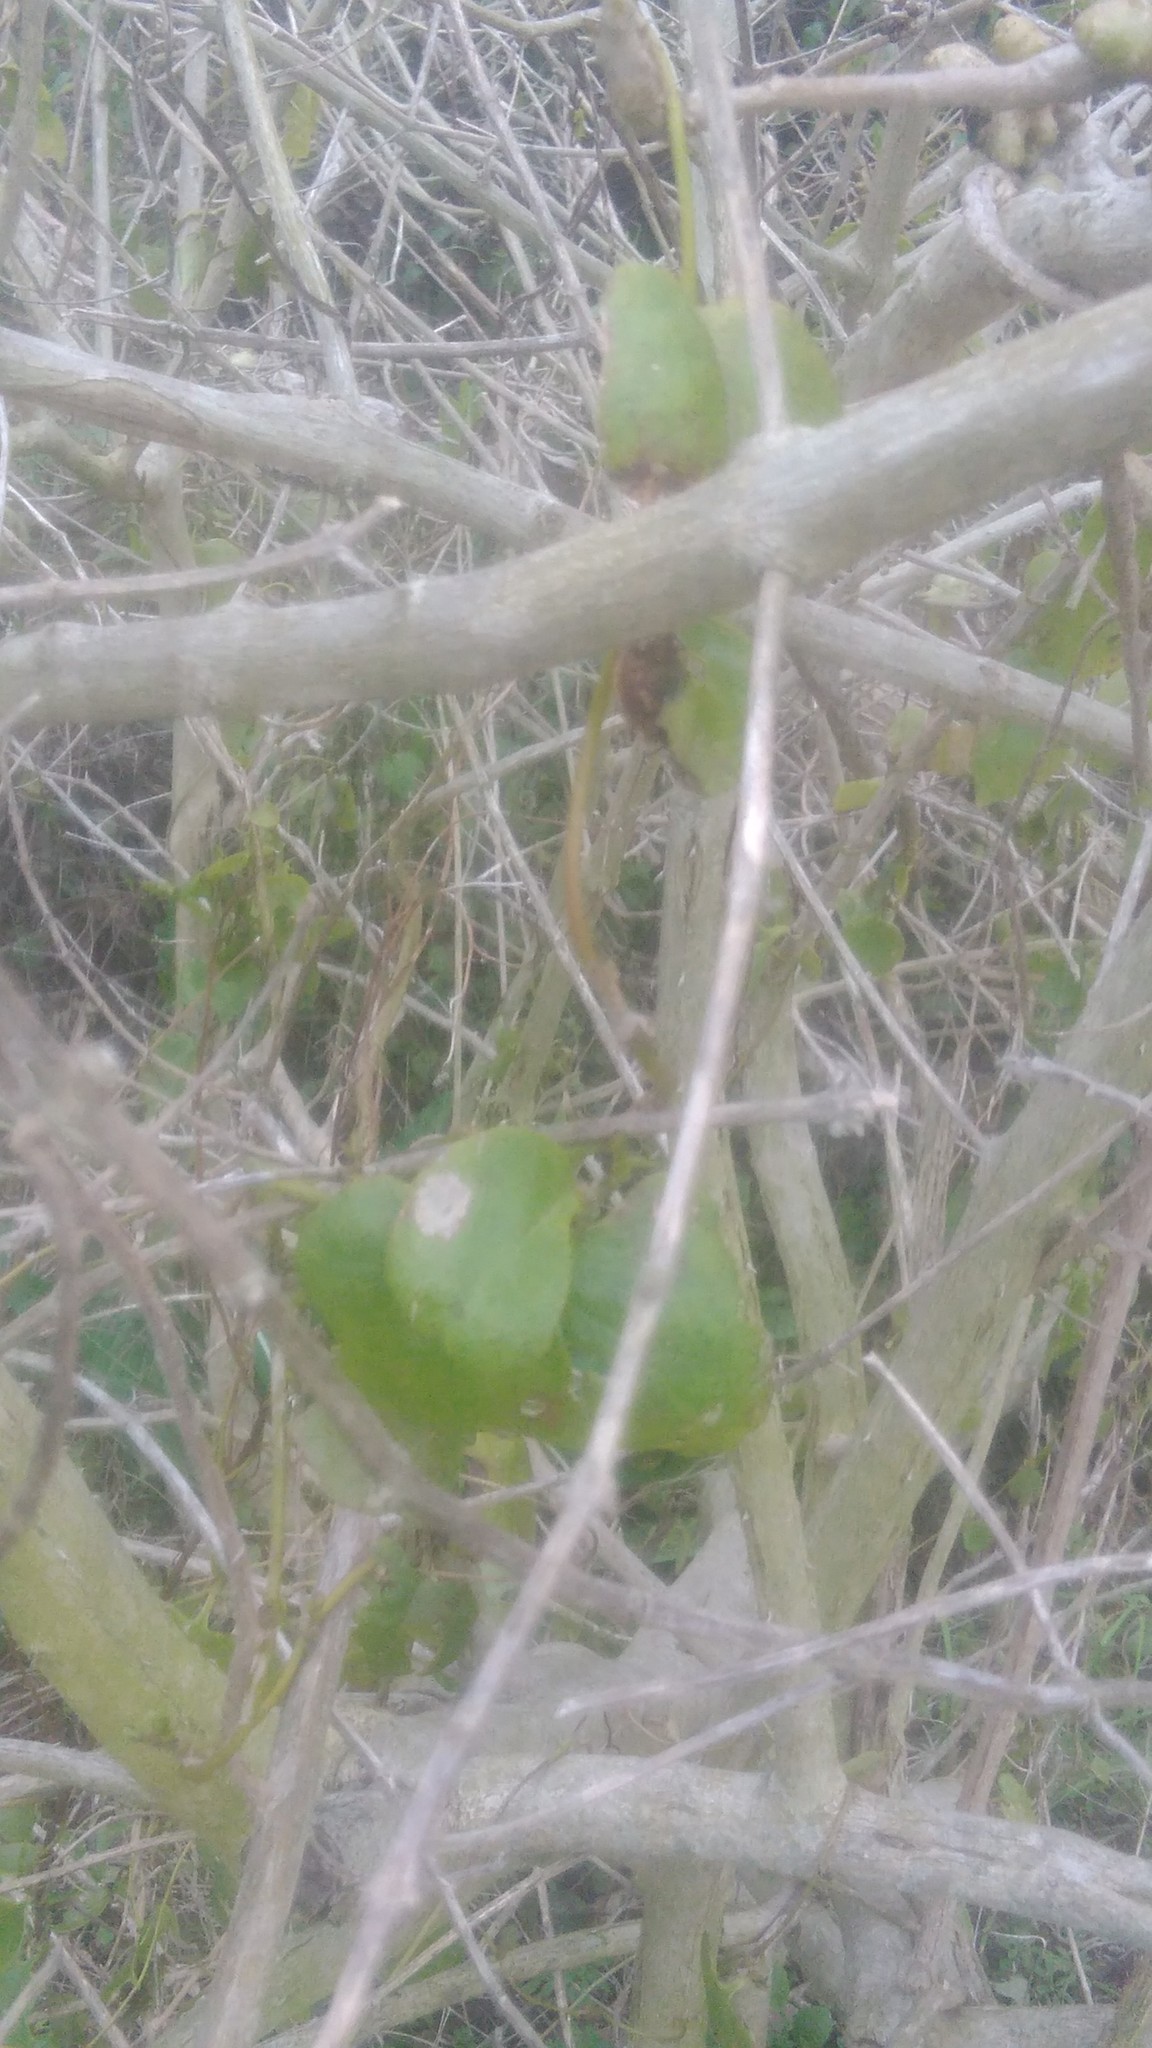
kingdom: Plantae
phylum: Tracheophyta
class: Magnoliopsida
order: Caryophyllales
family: Basellaceae
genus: Anredera
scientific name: Anredera cordifolia
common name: Heartleaf madeiravine
